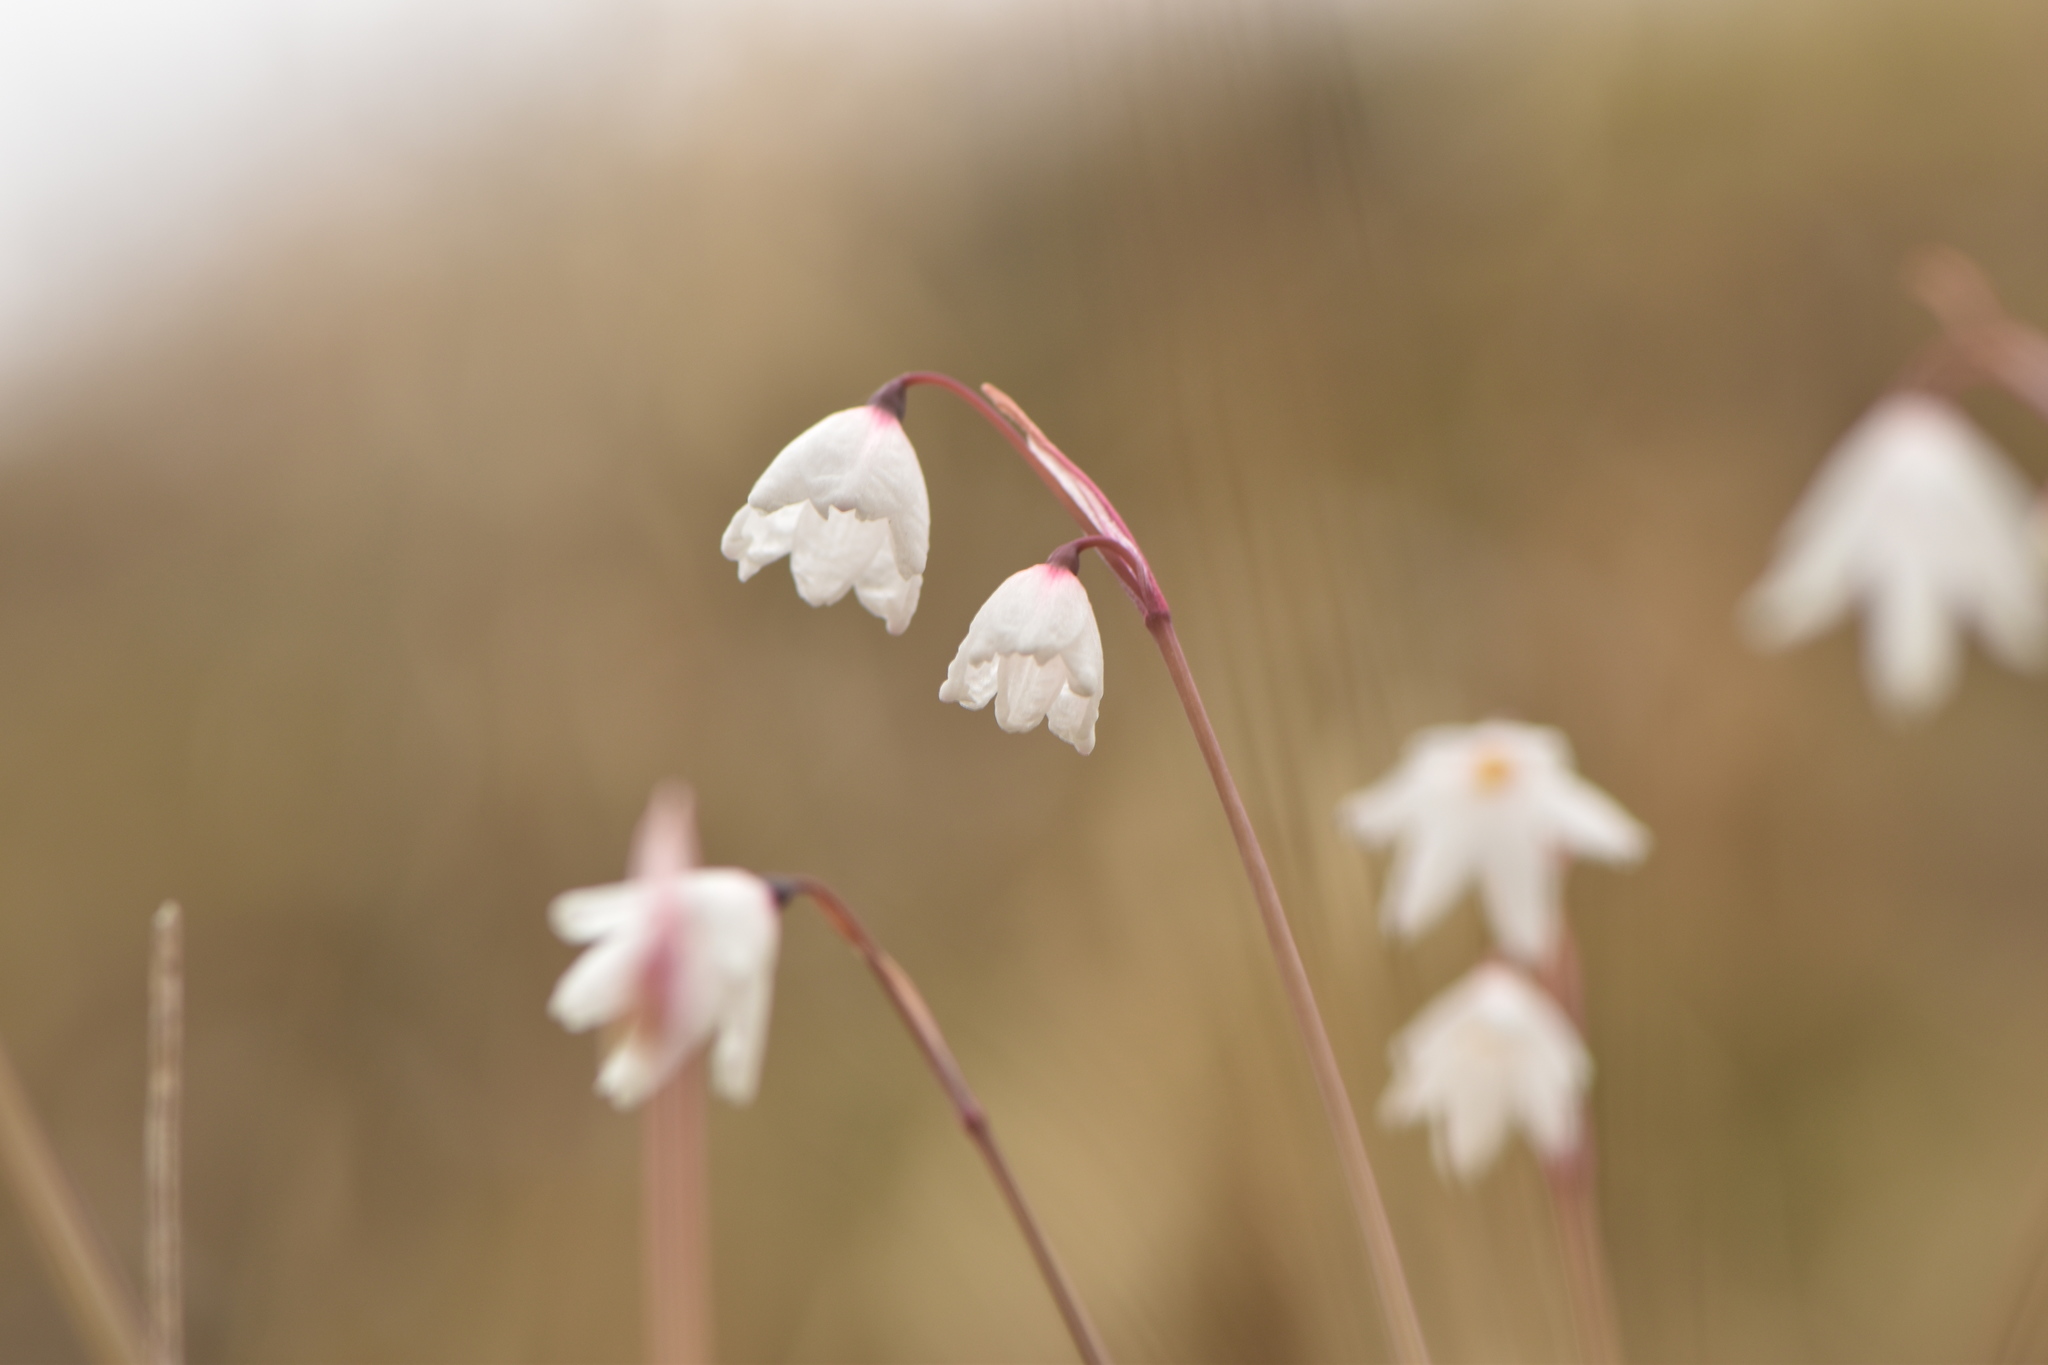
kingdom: Plantae
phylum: Tracheophyta
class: Liliopsida
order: Asparagales
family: Amaryllidaceae
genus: Acis
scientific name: Acis autumnalis
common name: Autumn snowflake
